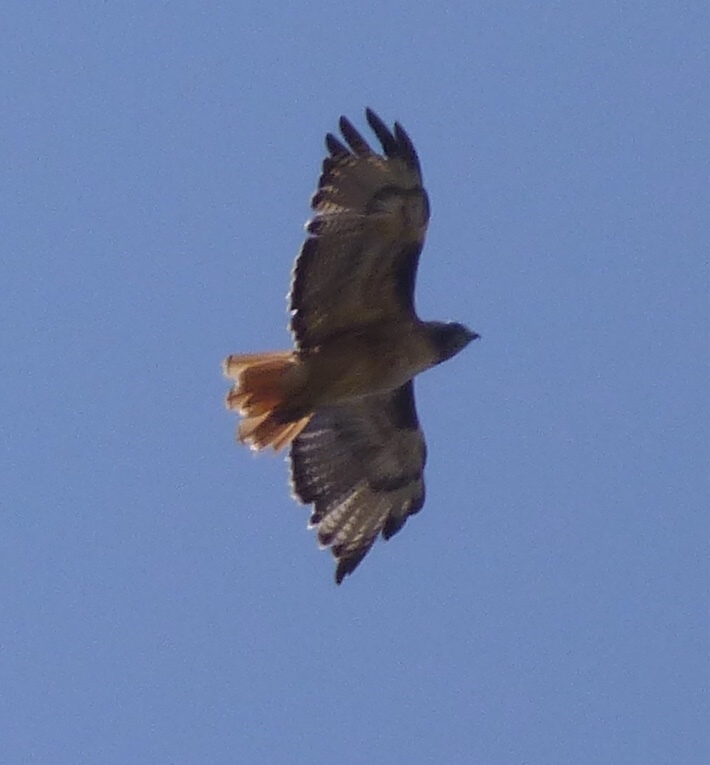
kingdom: Animalia
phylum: Chordata
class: Aves
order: Accipitriformes
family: Accipitridae
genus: Buteo
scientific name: Buteo jamaicensis
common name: Red-tailed hawk
